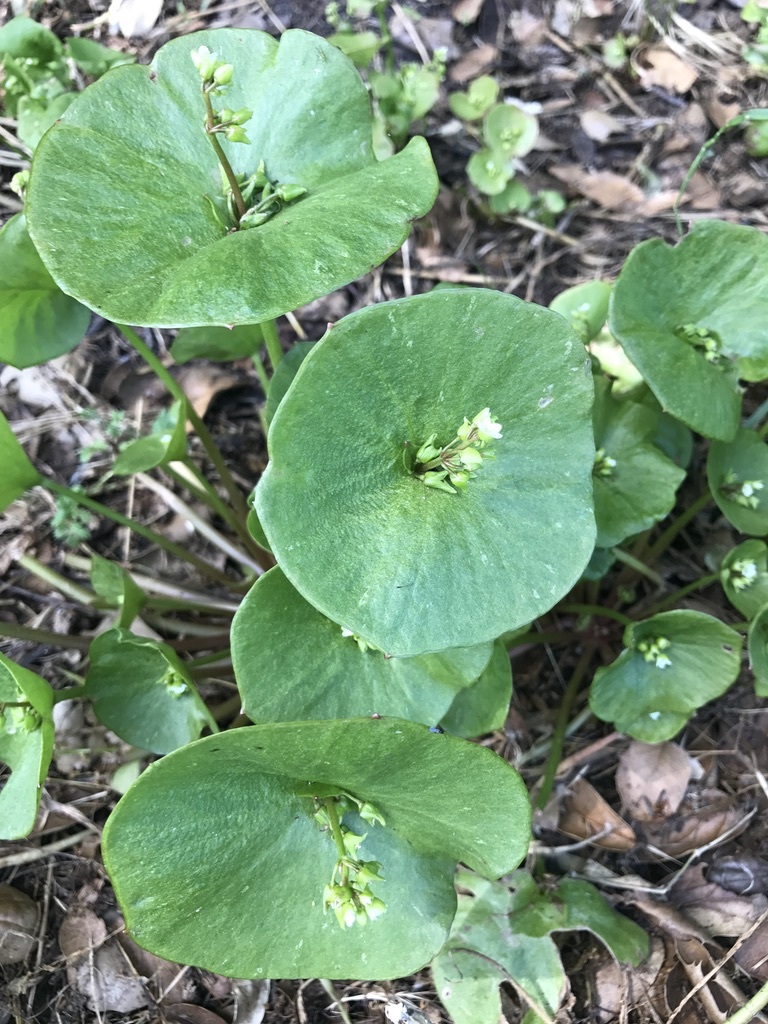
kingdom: Plantae
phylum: Tracheophyta
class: Magnoliopsida
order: Caryophyllales
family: Montiaceae
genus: Claytonia
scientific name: Claytonia perfoliata
